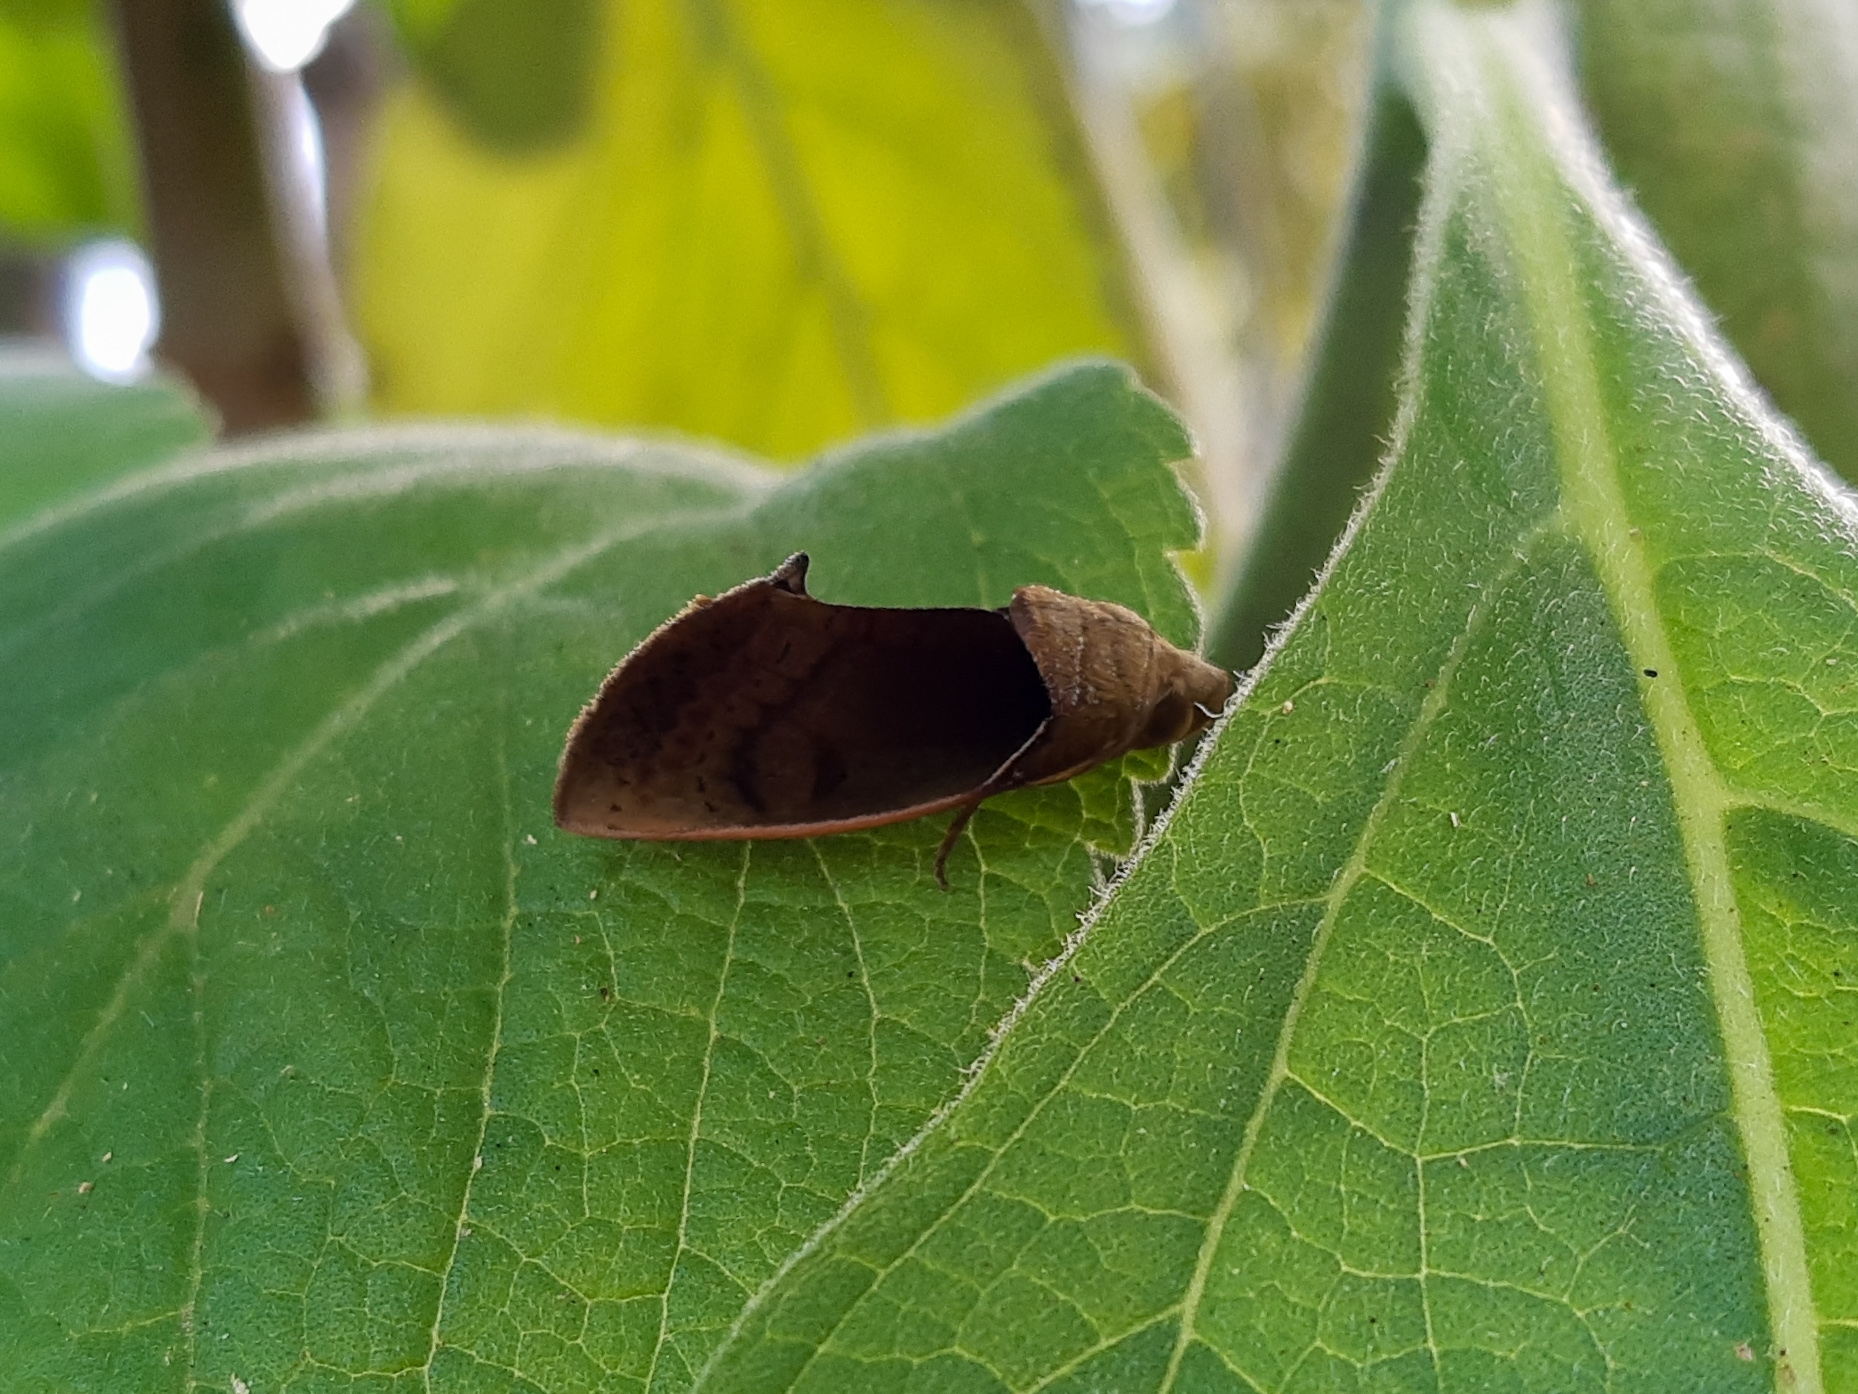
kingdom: Animalia
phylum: Arthropoda
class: Insecta
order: Lepidoptera
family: Erebidae
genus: Gonodonta
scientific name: Gonodonta sicheas
